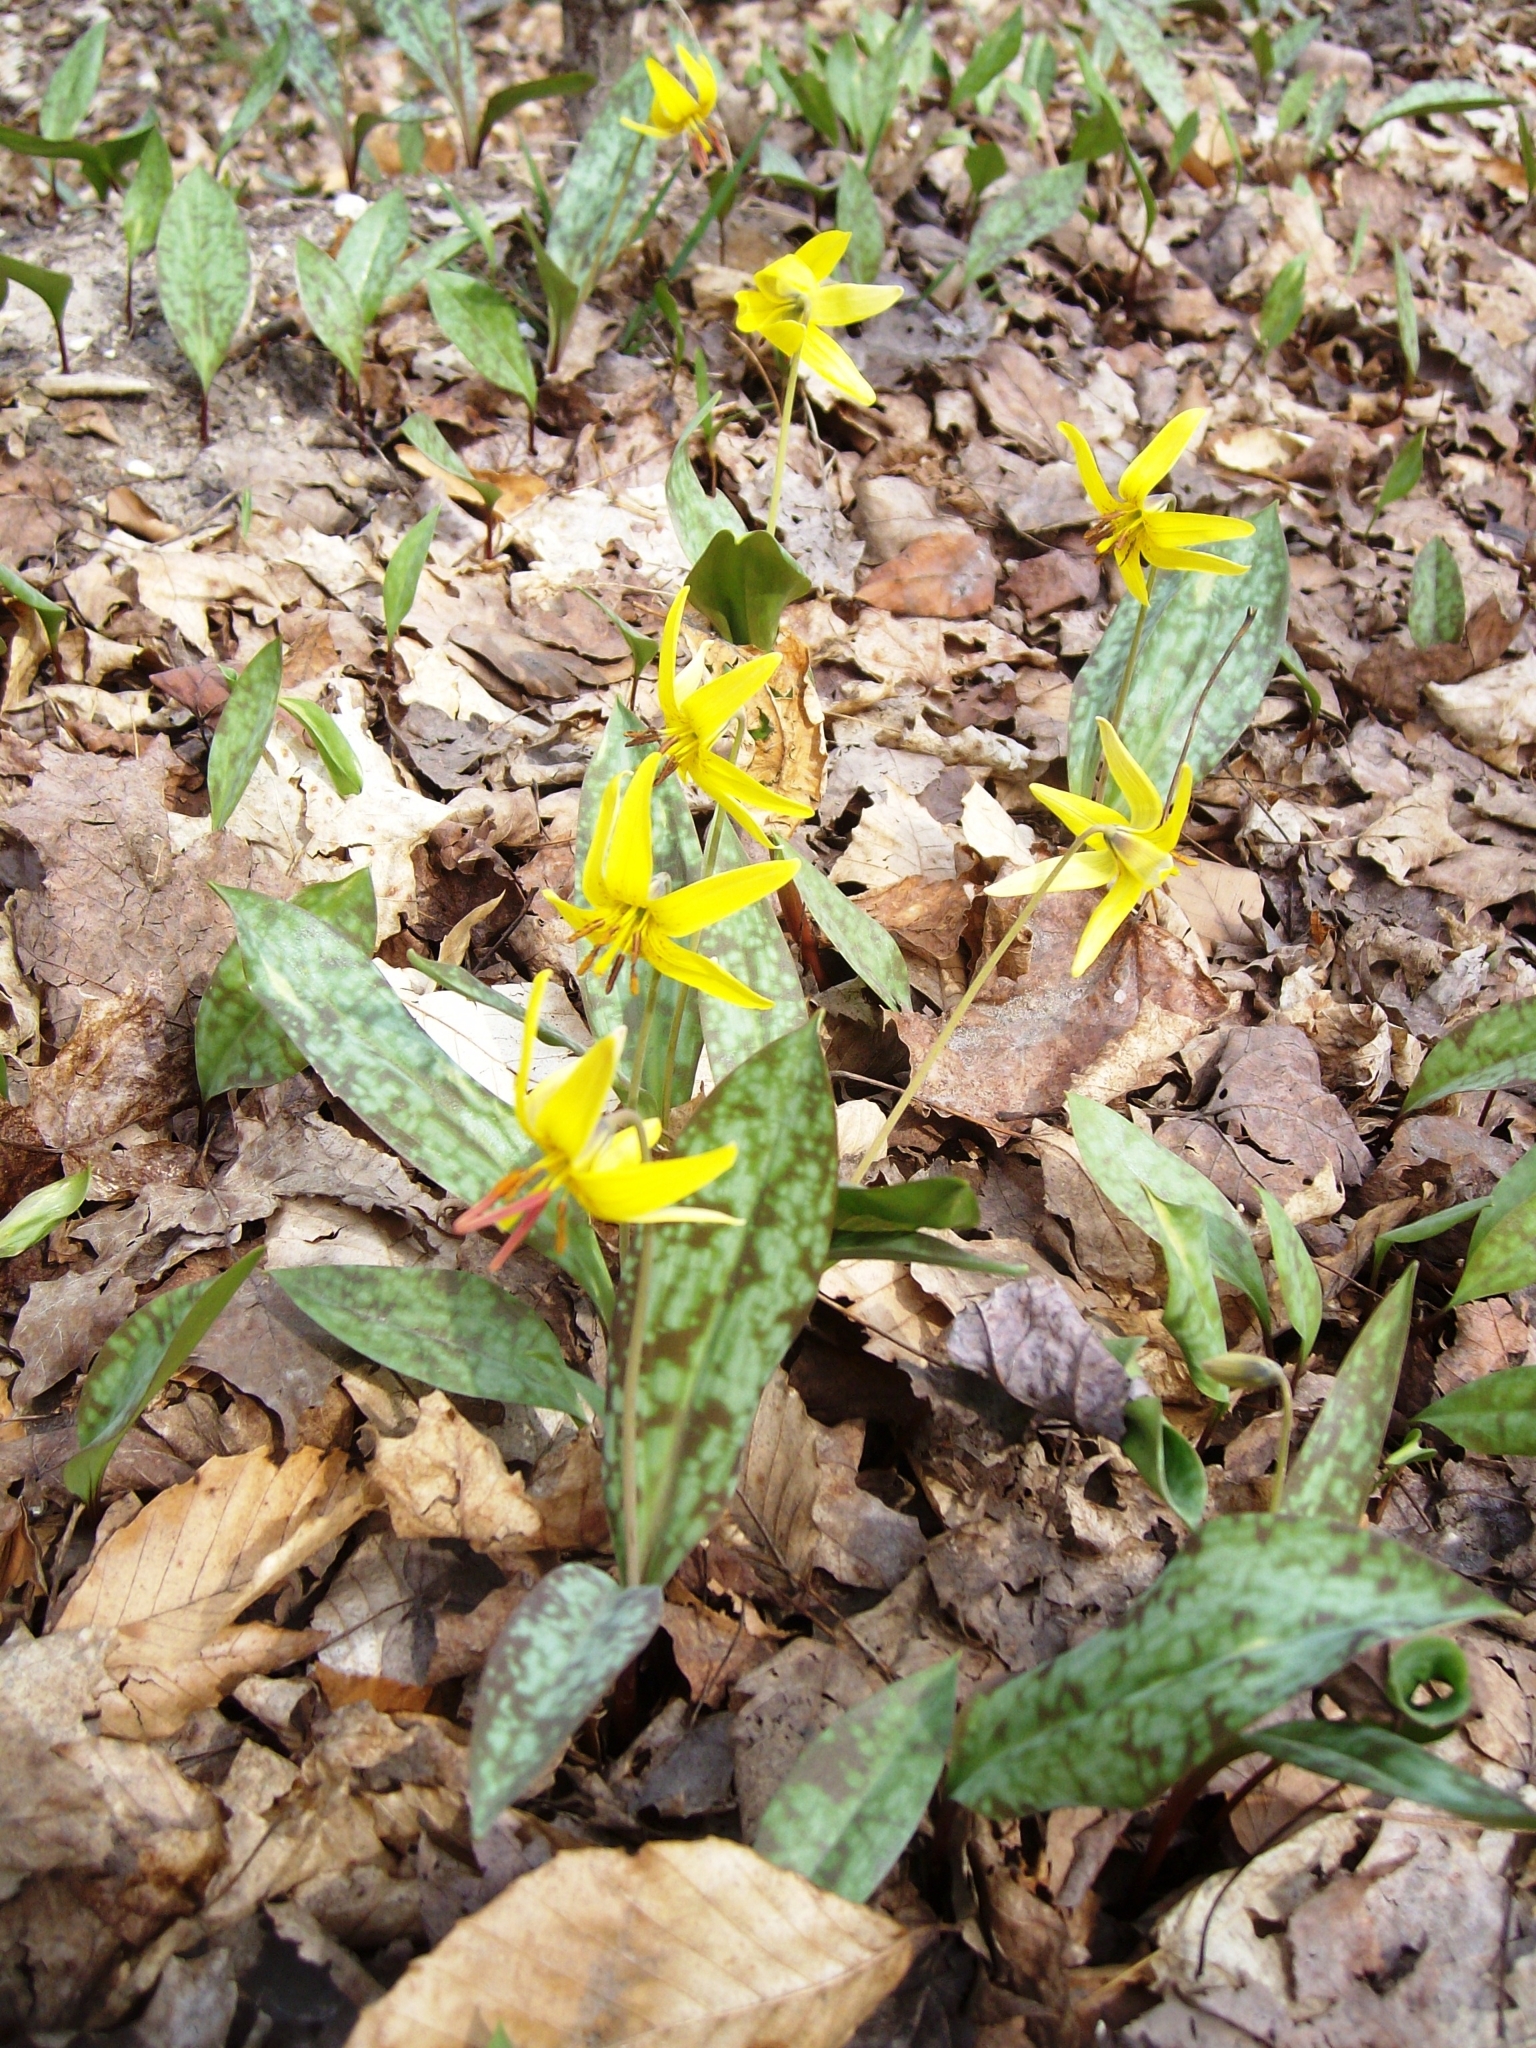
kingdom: Plantae
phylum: Tracheophyta
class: Liliopsida
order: Liliales
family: Liliaceae
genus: Erythronium
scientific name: Erythronium americanum
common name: Yellow adder's-tongue
